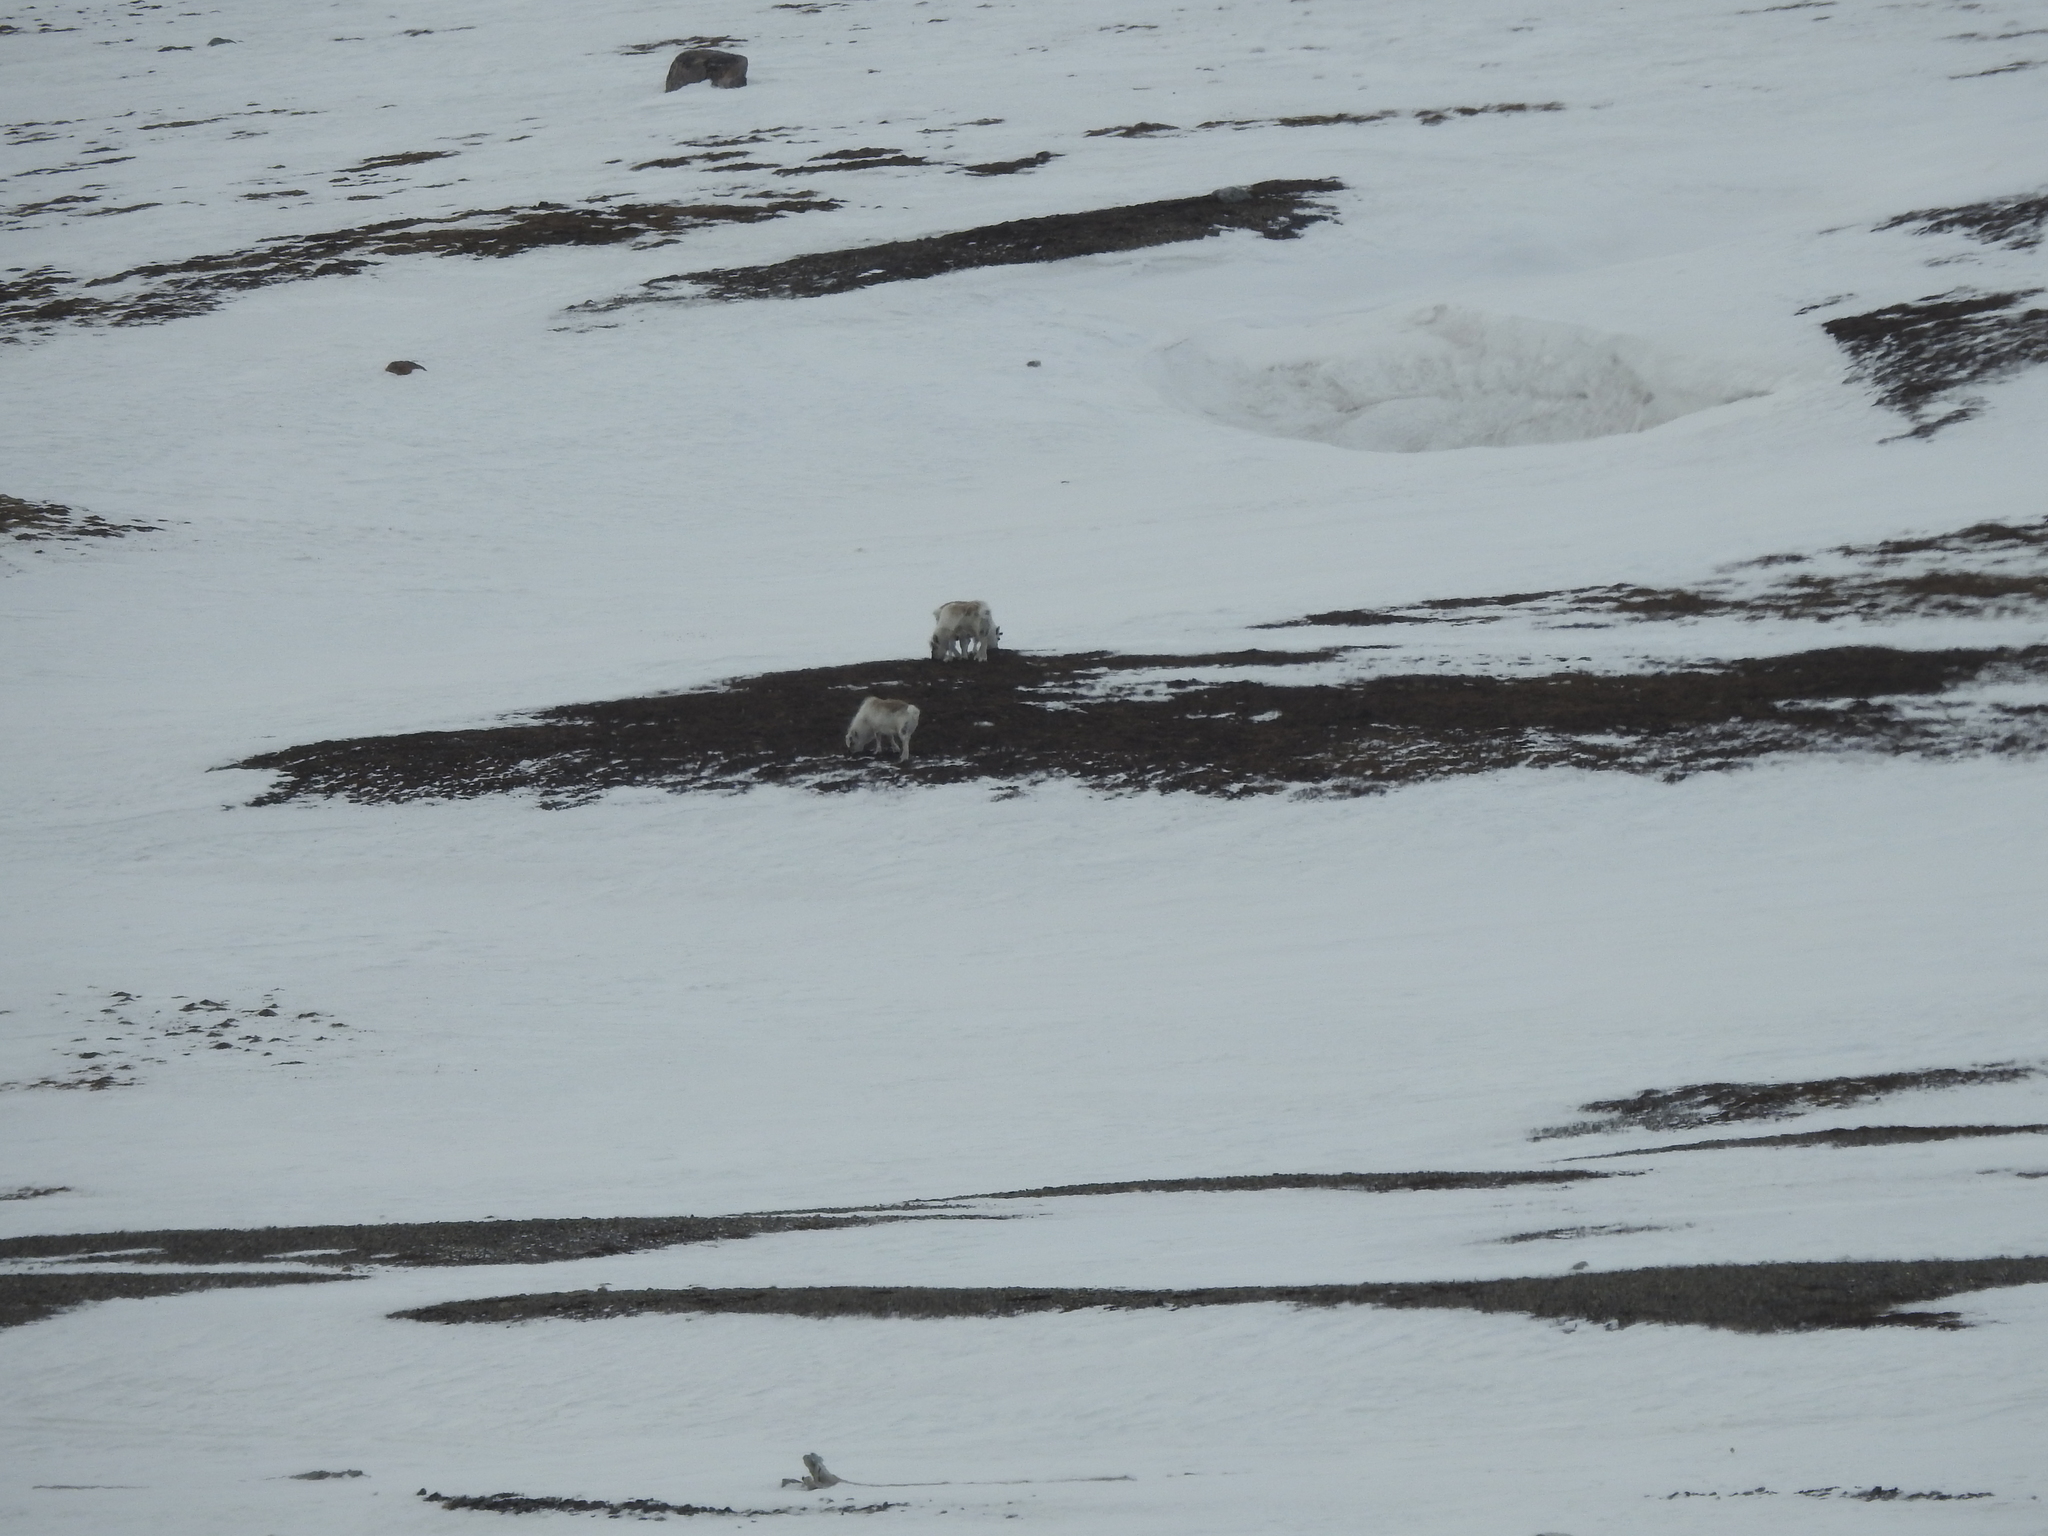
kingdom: Animalia
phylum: Chordata
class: Mammalia
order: Artiodactyla
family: Cervidae
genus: Rangifer
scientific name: Rangifer tarandus
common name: Reindeer
